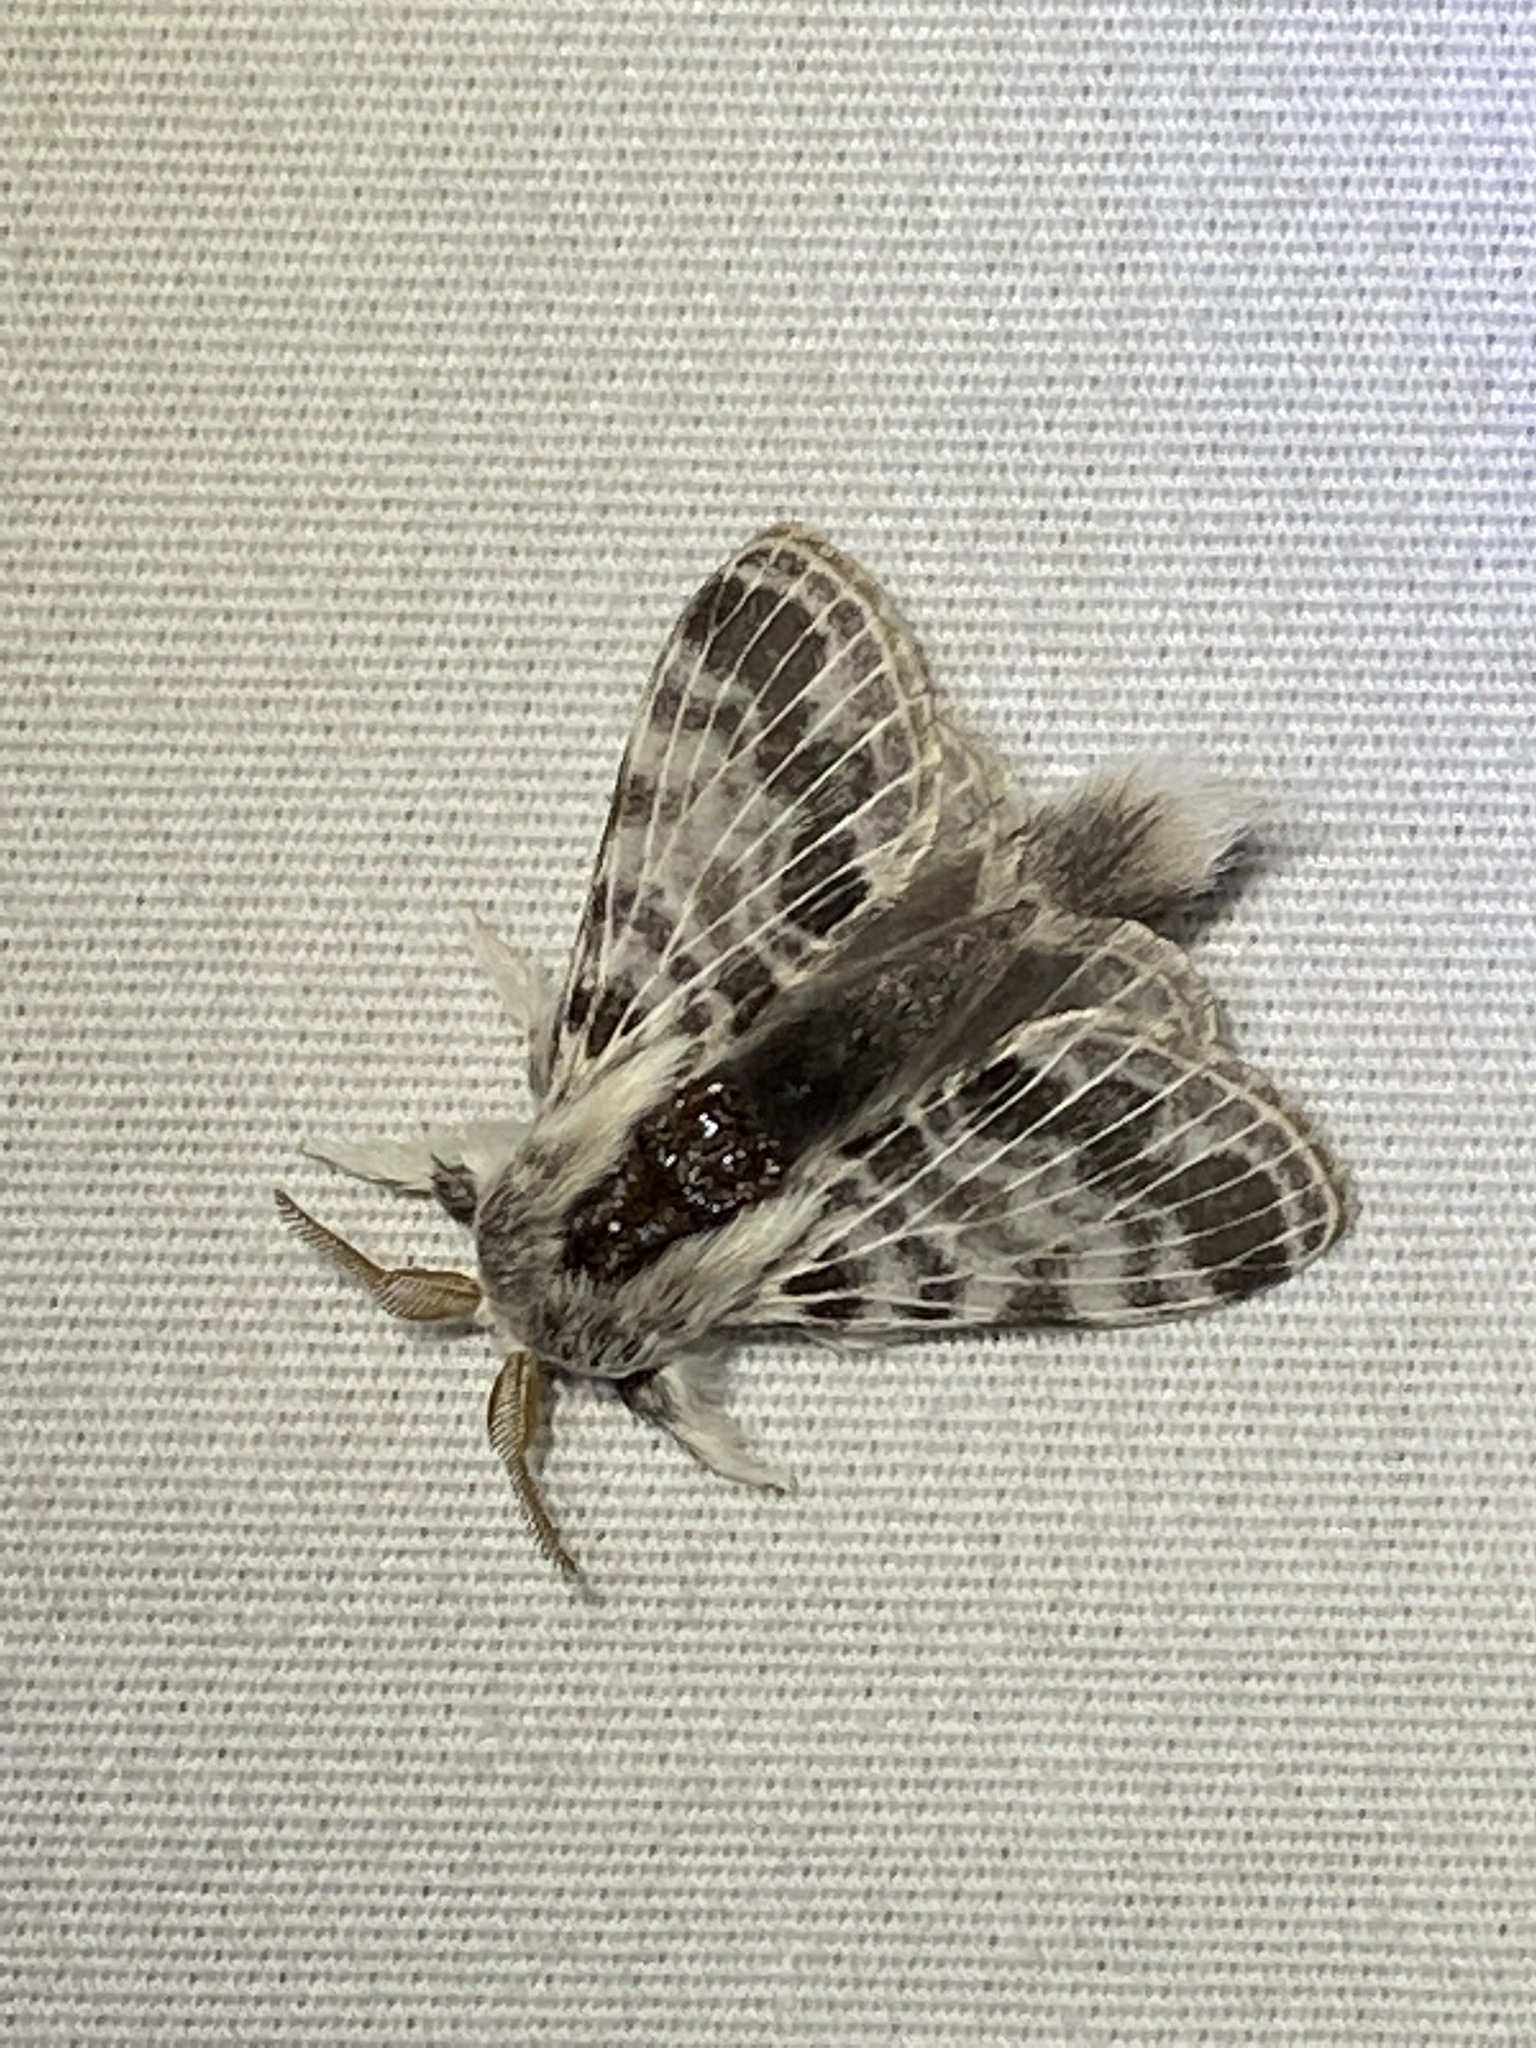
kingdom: Animalia
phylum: Arthropoda
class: Insecta
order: Lepidoptera
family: Lasiocampidae
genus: Tolype
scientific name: Tolype notialis
